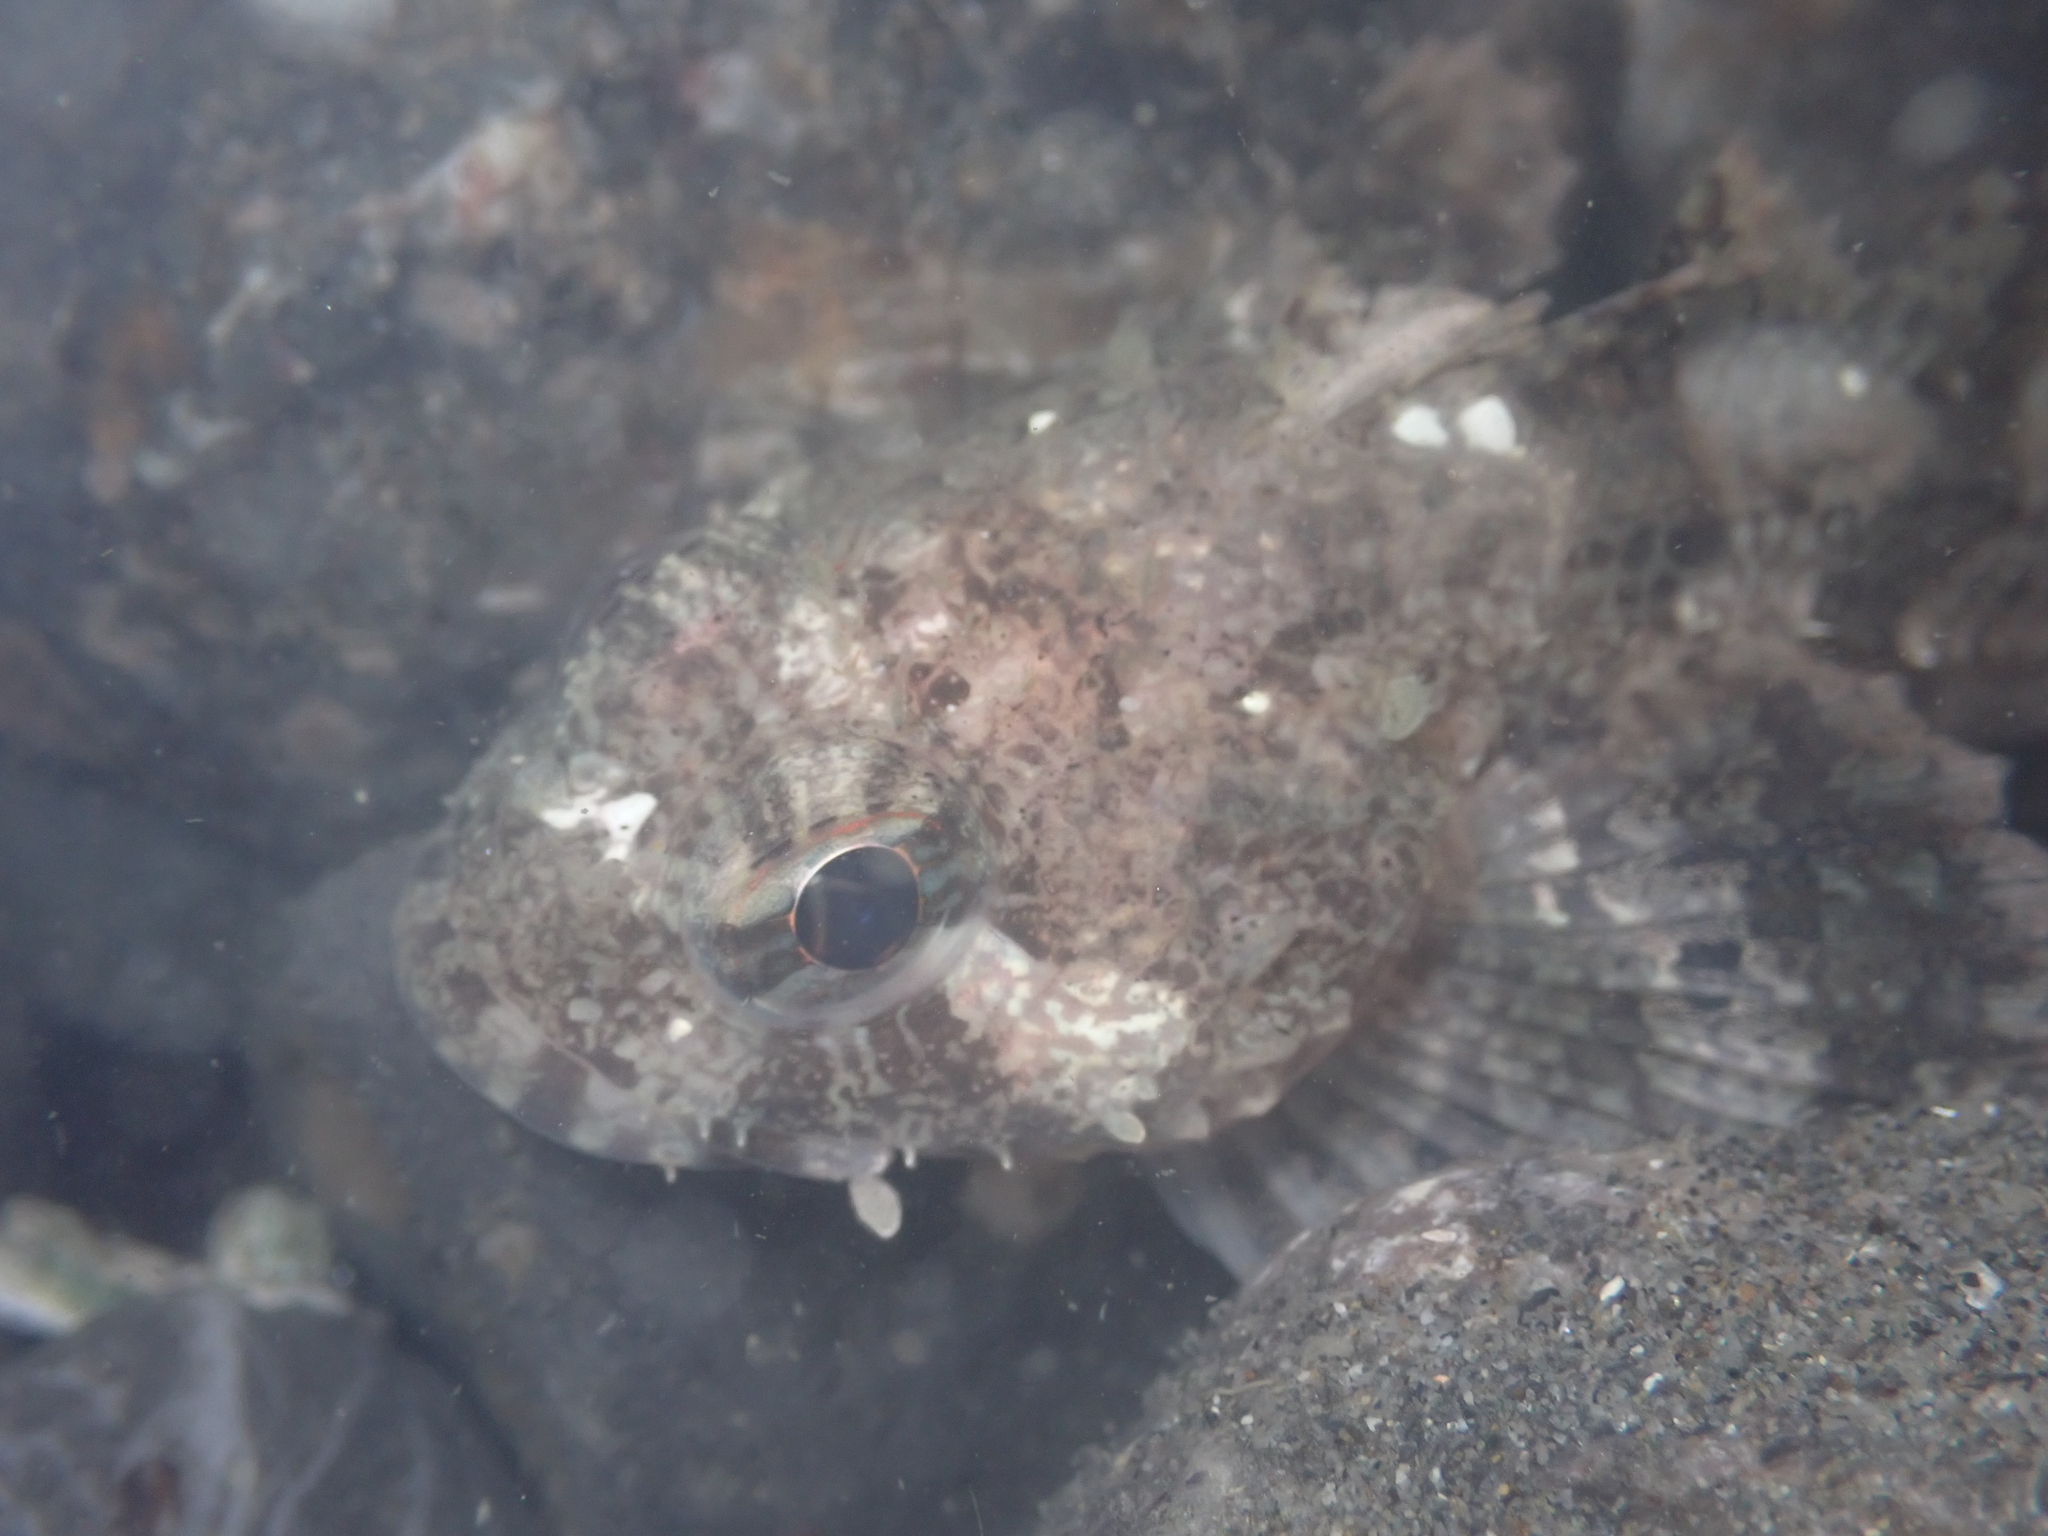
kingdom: Animalia
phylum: Chordata
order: Scorpaeniformes
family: Cottidae
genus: Hemilepidotus
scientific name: Hemilepidotus spinosus
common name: Brown irish lord
